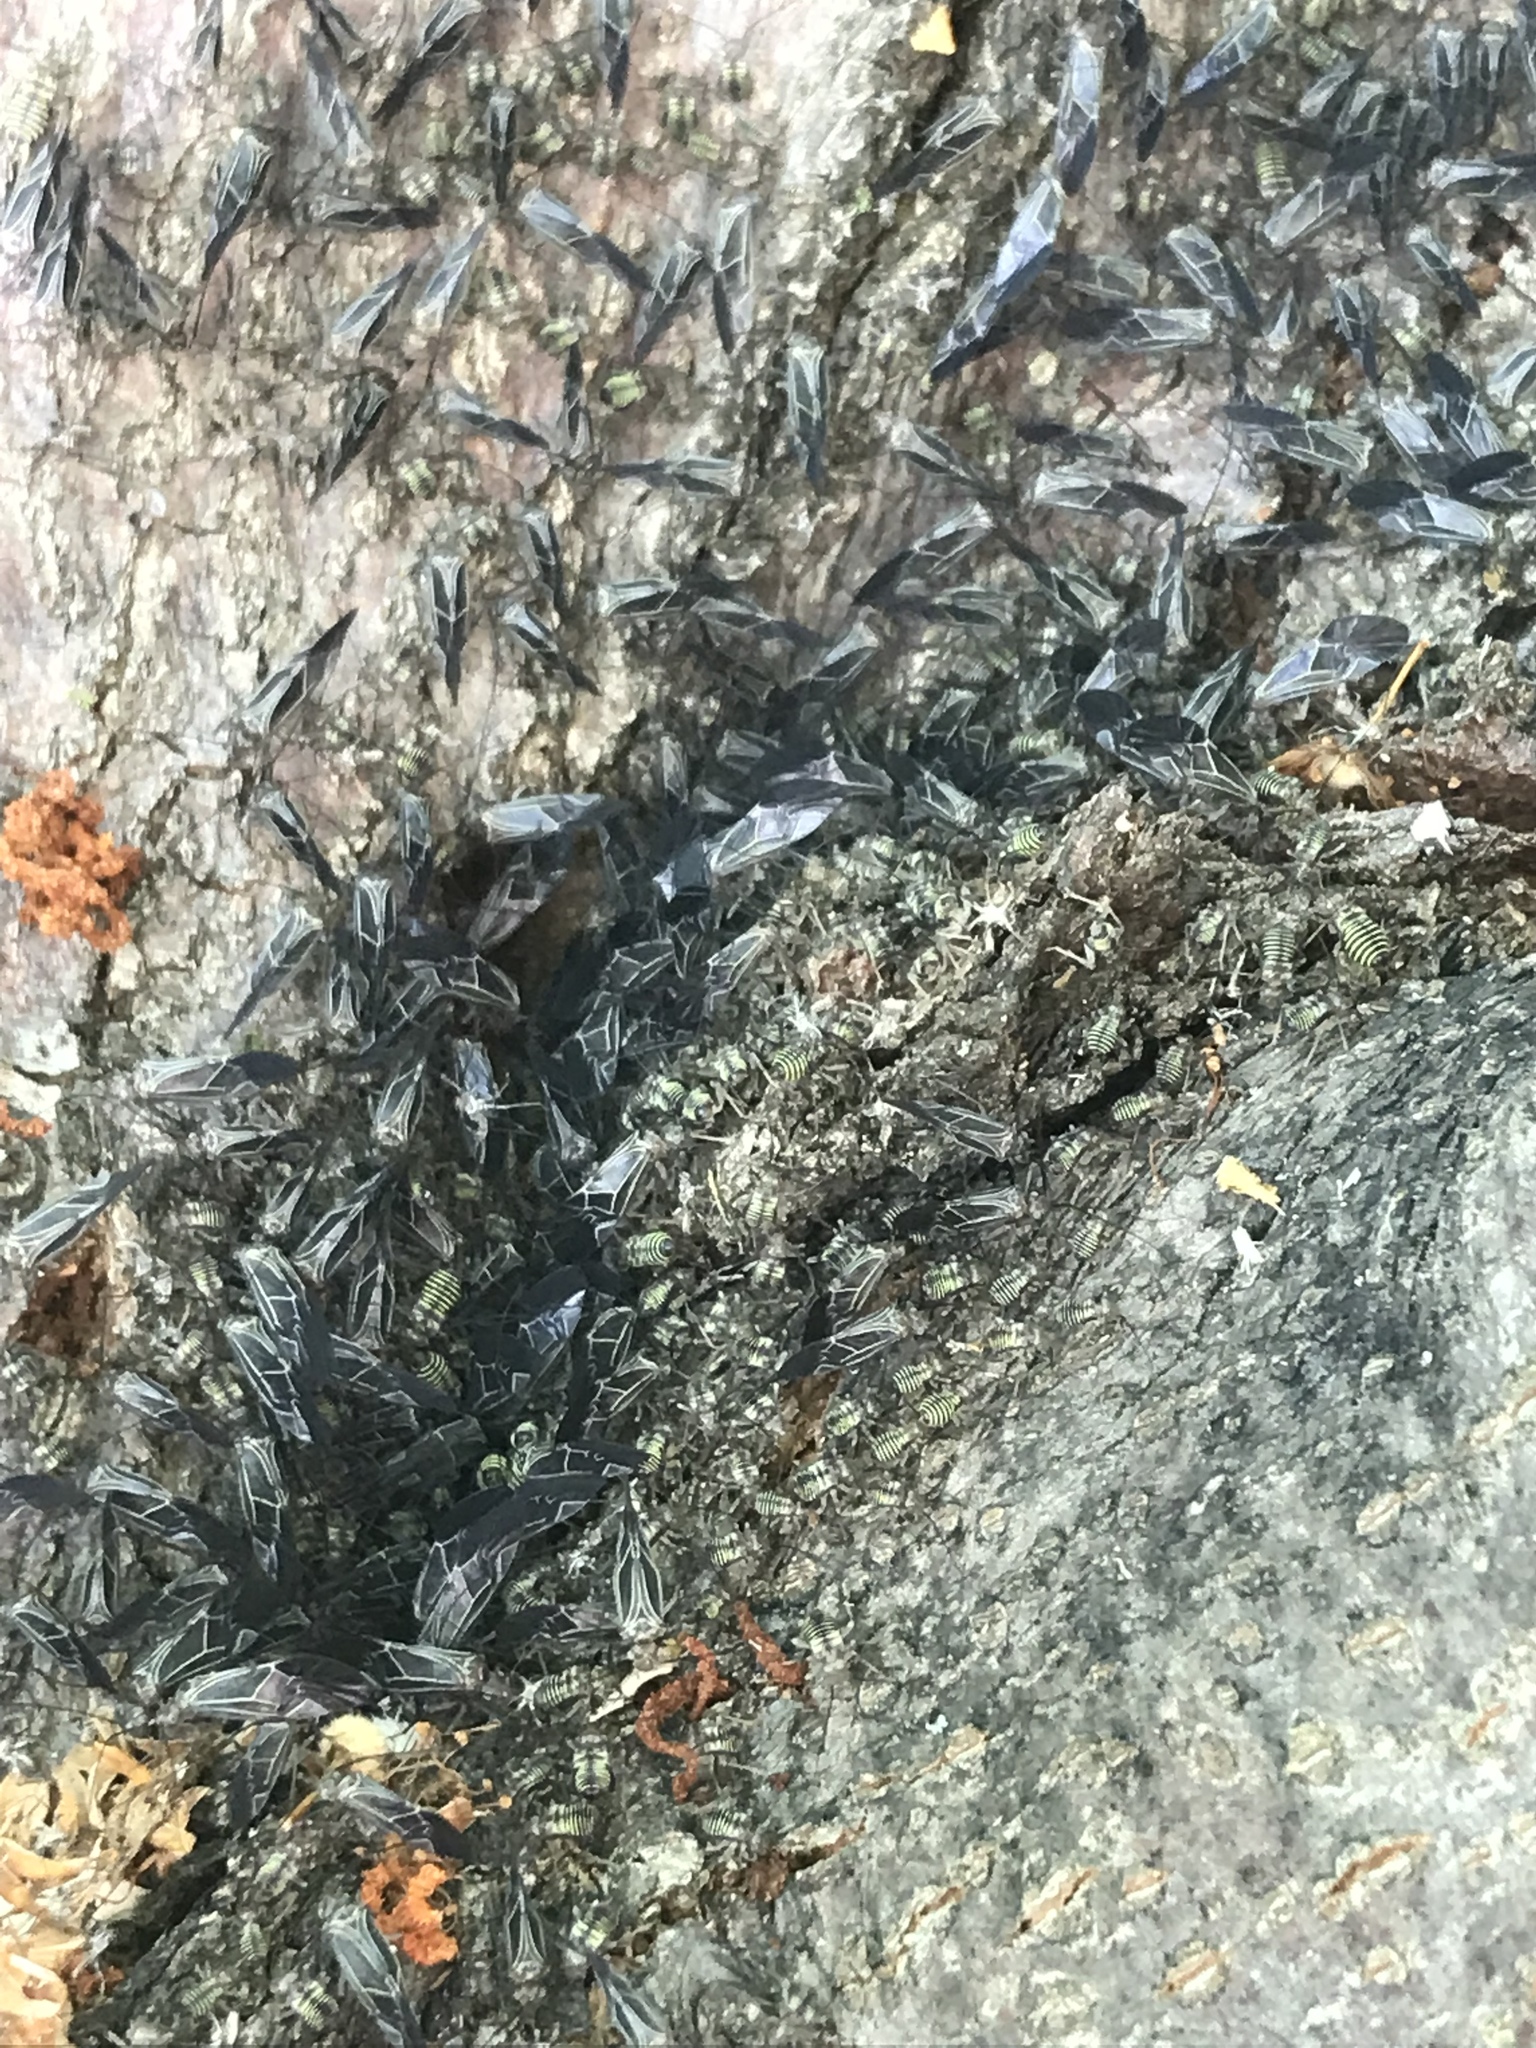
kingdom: Animalia
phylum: Arthropoda
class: Insecta
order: Psocodea
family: Psocidae
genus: Cerastipsocus
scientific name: Cerastipsocus venosus
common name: Tree cattle
